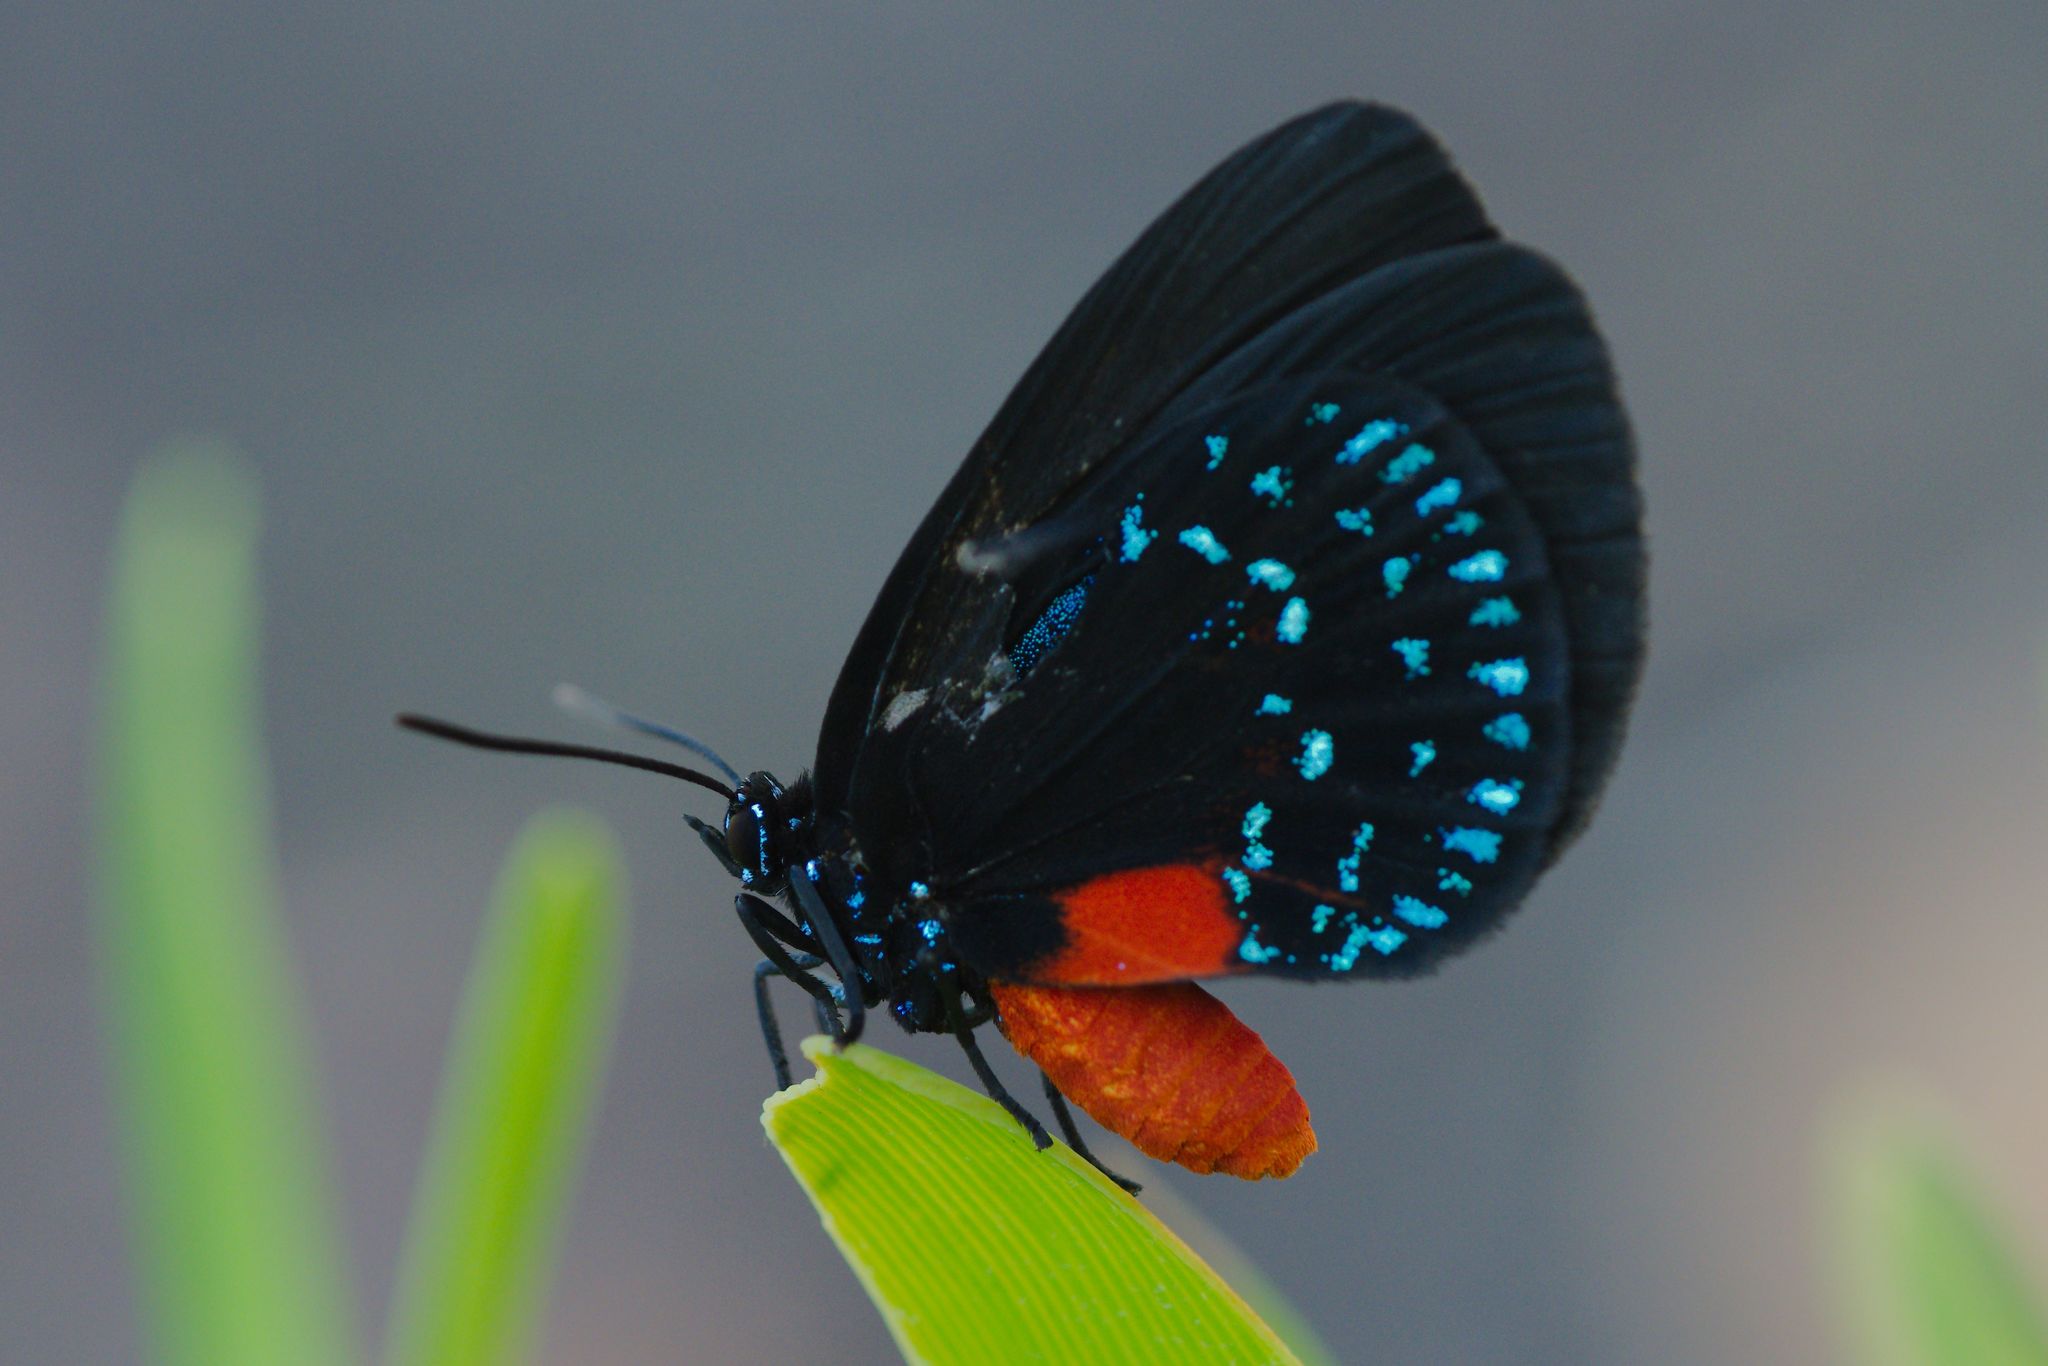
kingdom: Animalia
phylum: Arthropoda
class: Insecta
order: Lepidoptera
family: Lycaenidae
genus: Eumaeus
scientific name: Eumaeus atala
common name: Atala
